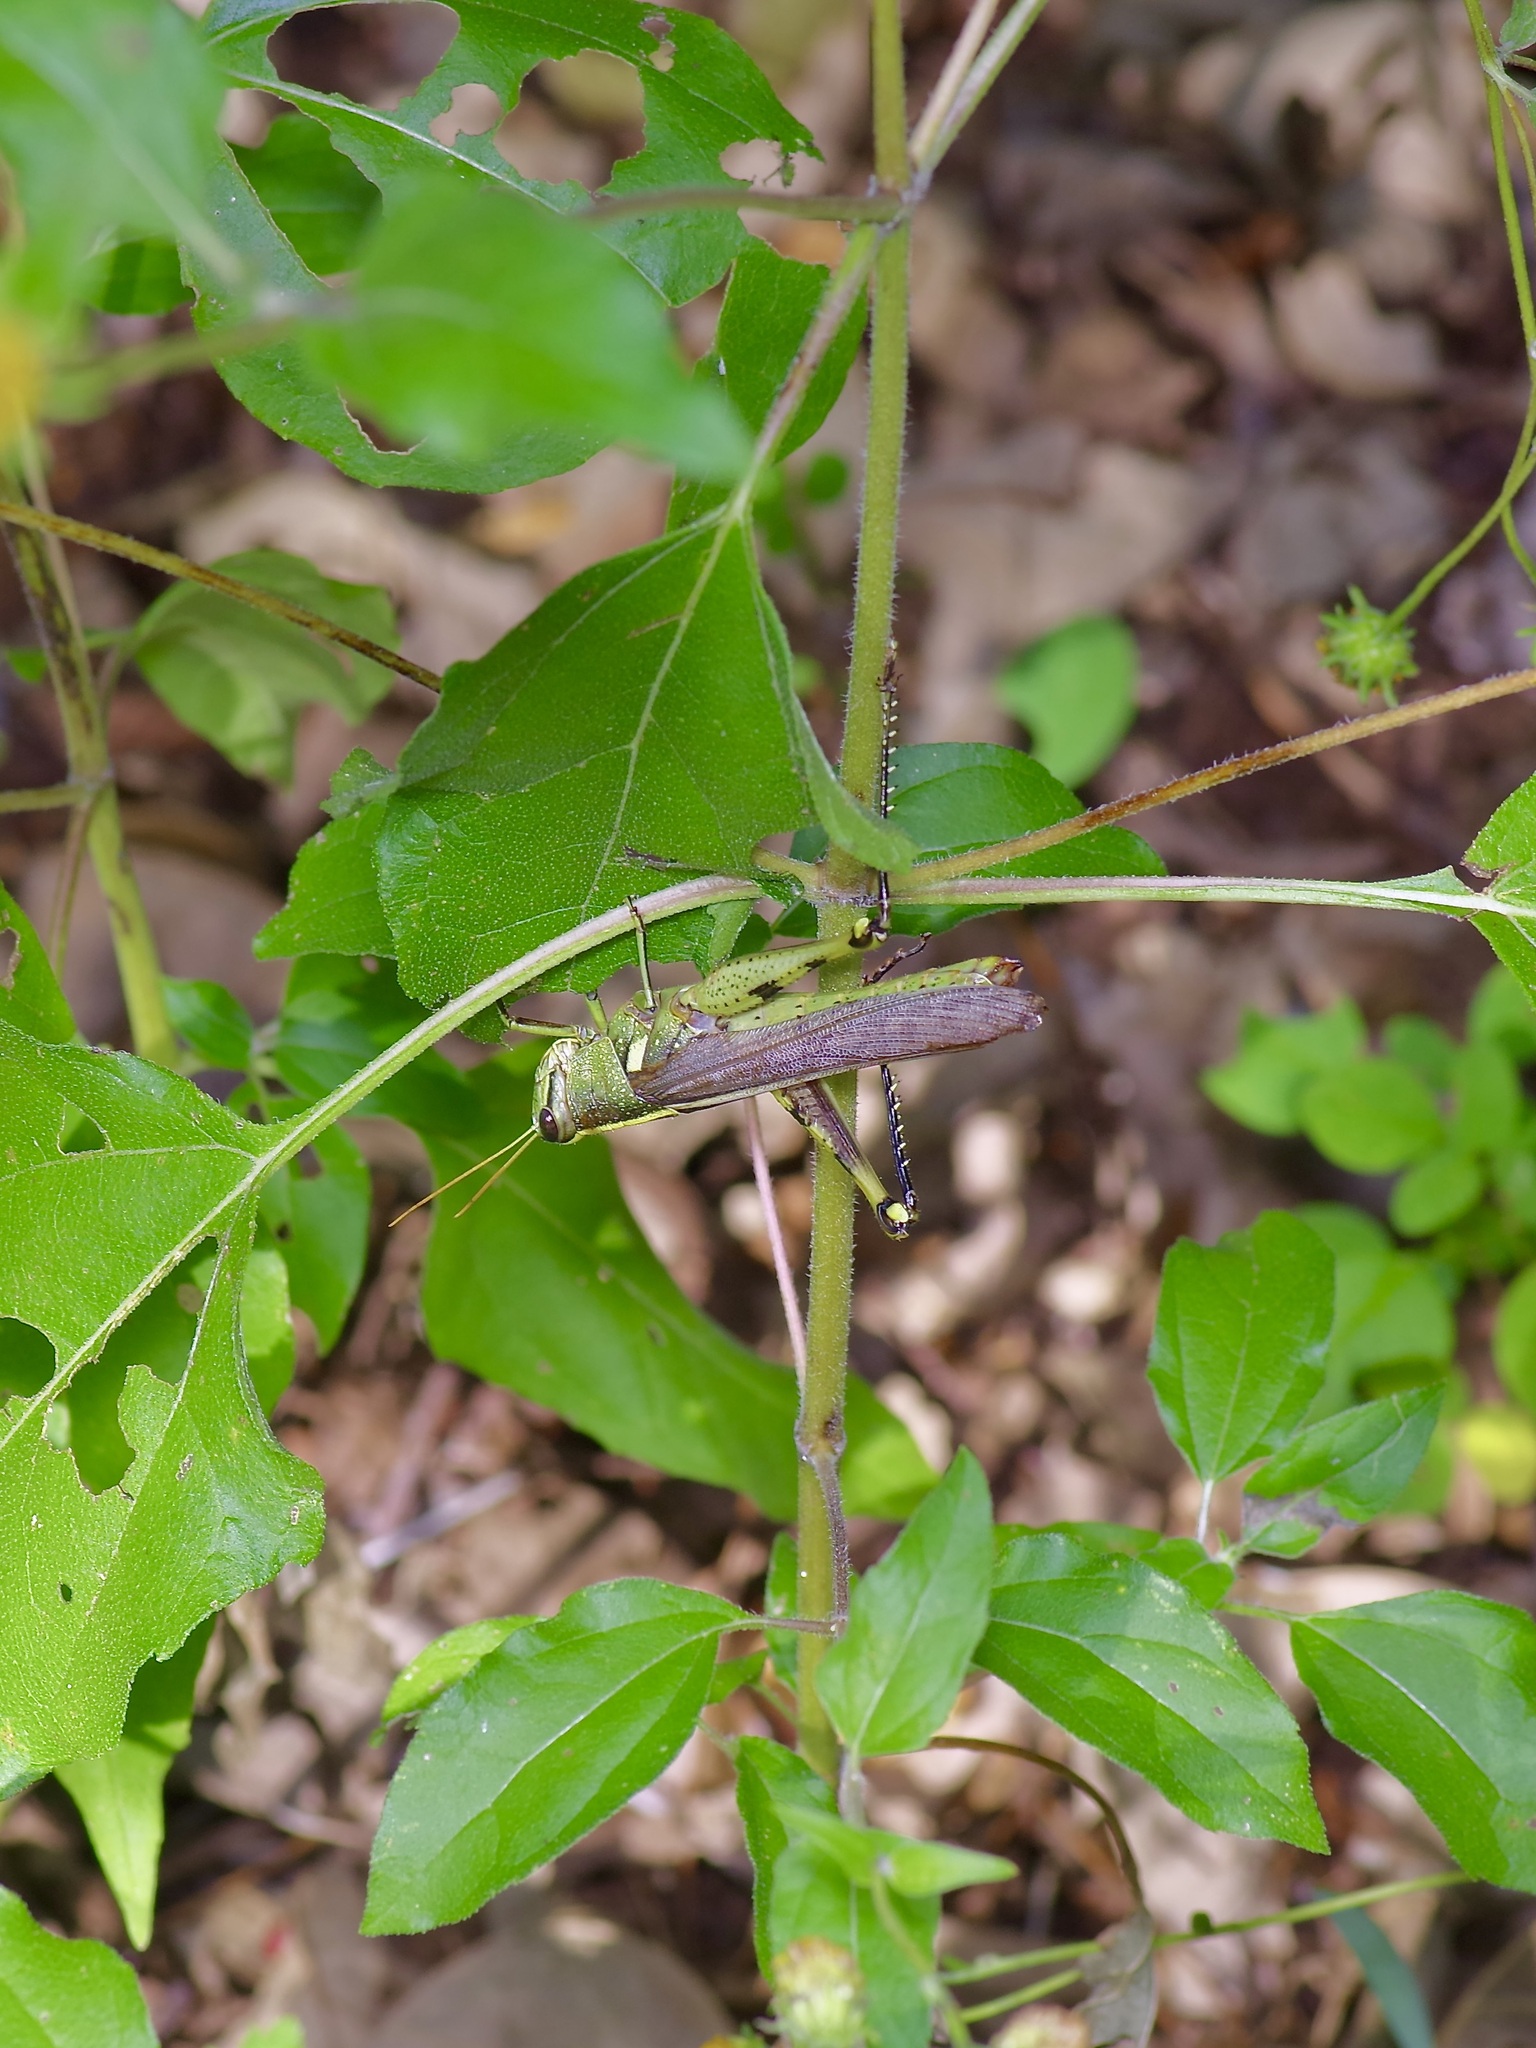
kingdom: Animalia
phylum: Arthropoda
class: Insecta
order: Orthoptera
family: Acrididae
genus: Schistocerca
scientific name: Schistocerca obscura
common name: Obscure bird grasshopper
